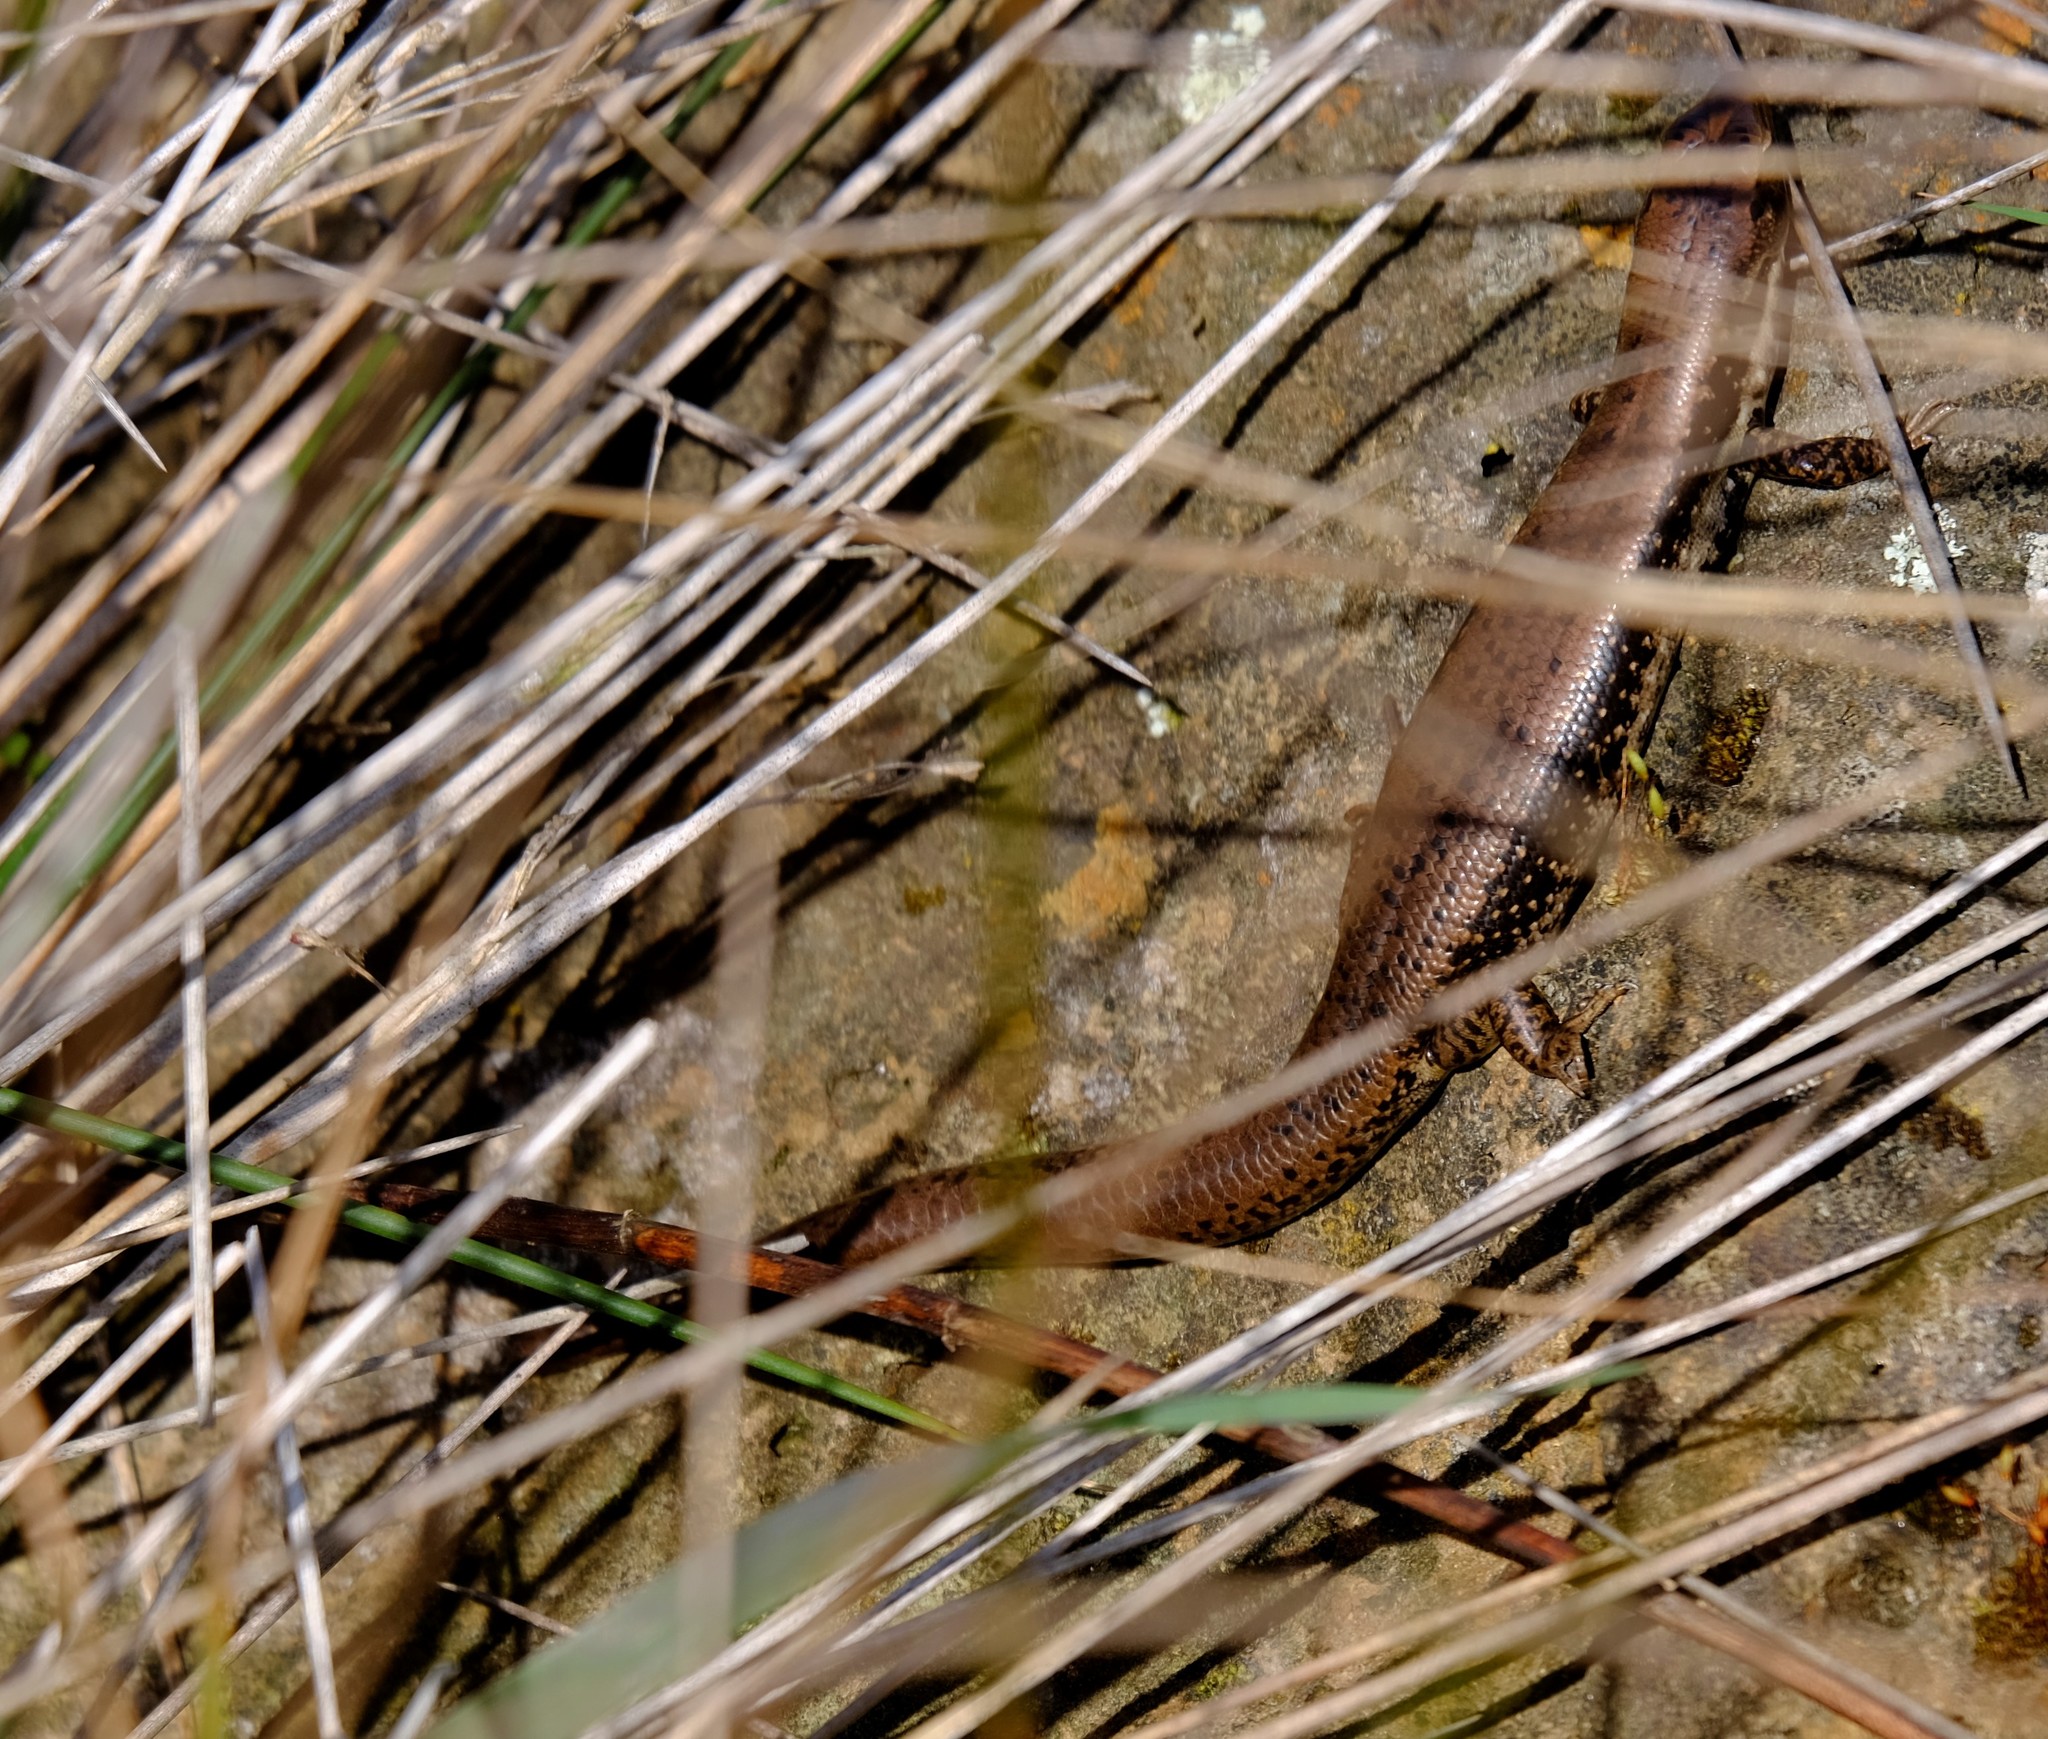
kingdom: Animalia
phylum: Chordata
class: Squamata
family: Scincidae
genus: Eulamprus
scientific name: Eulamprus tympanum
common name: Cool-temperate water-skink
